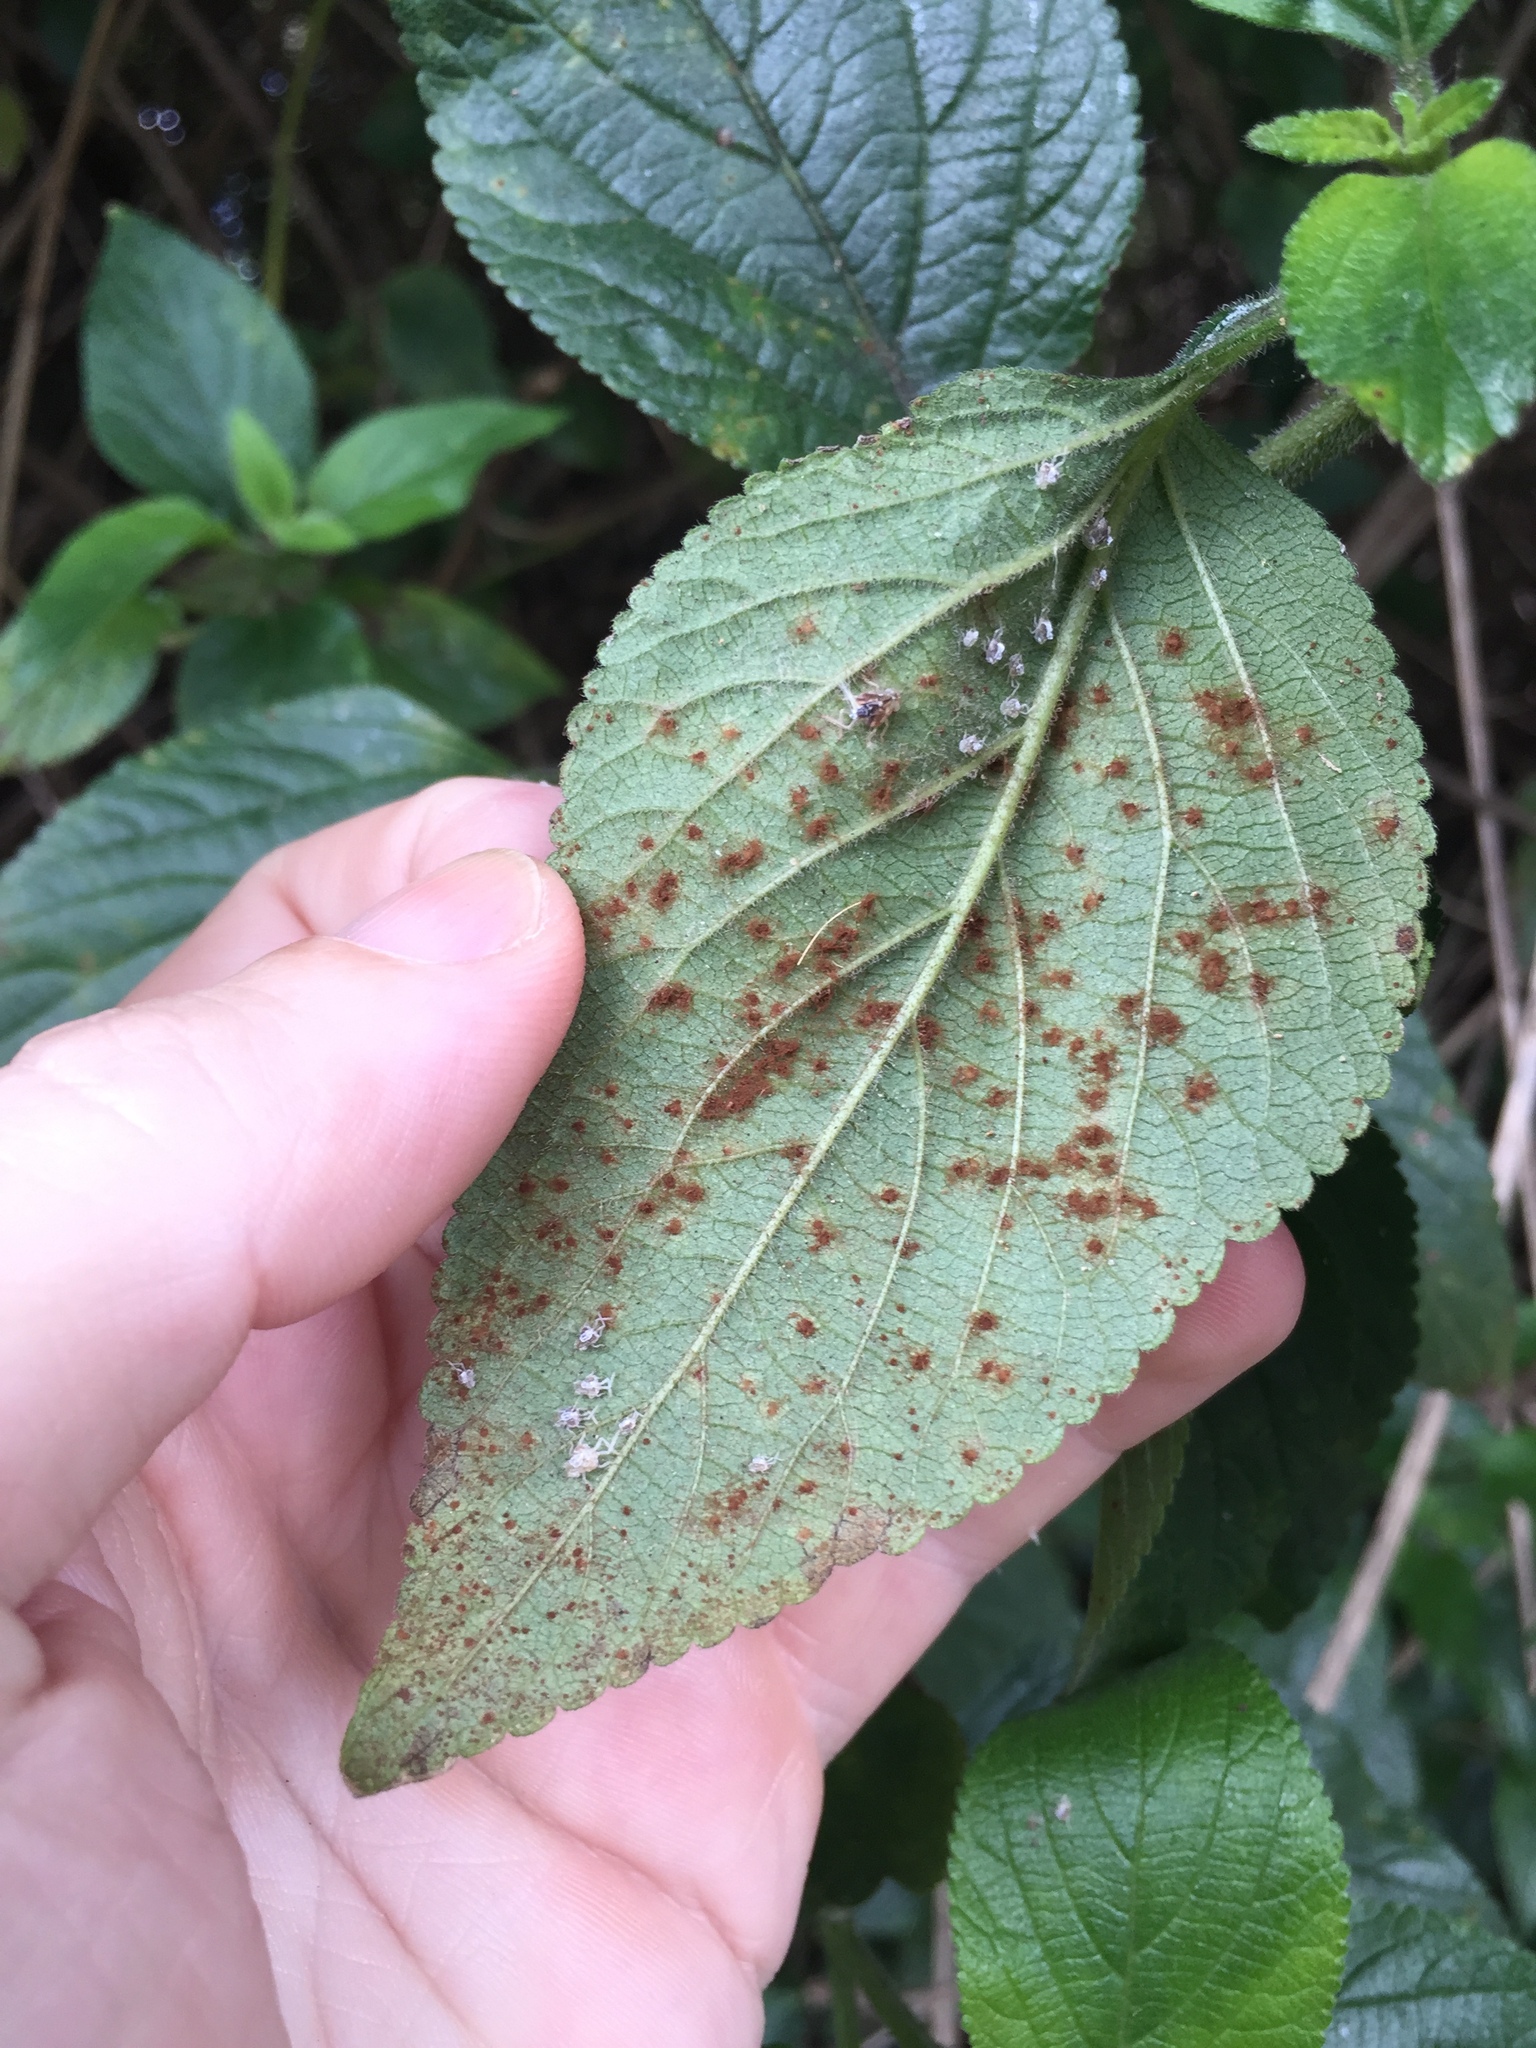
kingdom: Fungi
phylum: Basidiomycota
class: Pucciniomycetes
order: Pucciniales
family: Uropyxidaceae
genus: Prospodium
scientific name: Prospodium tuberculatum
